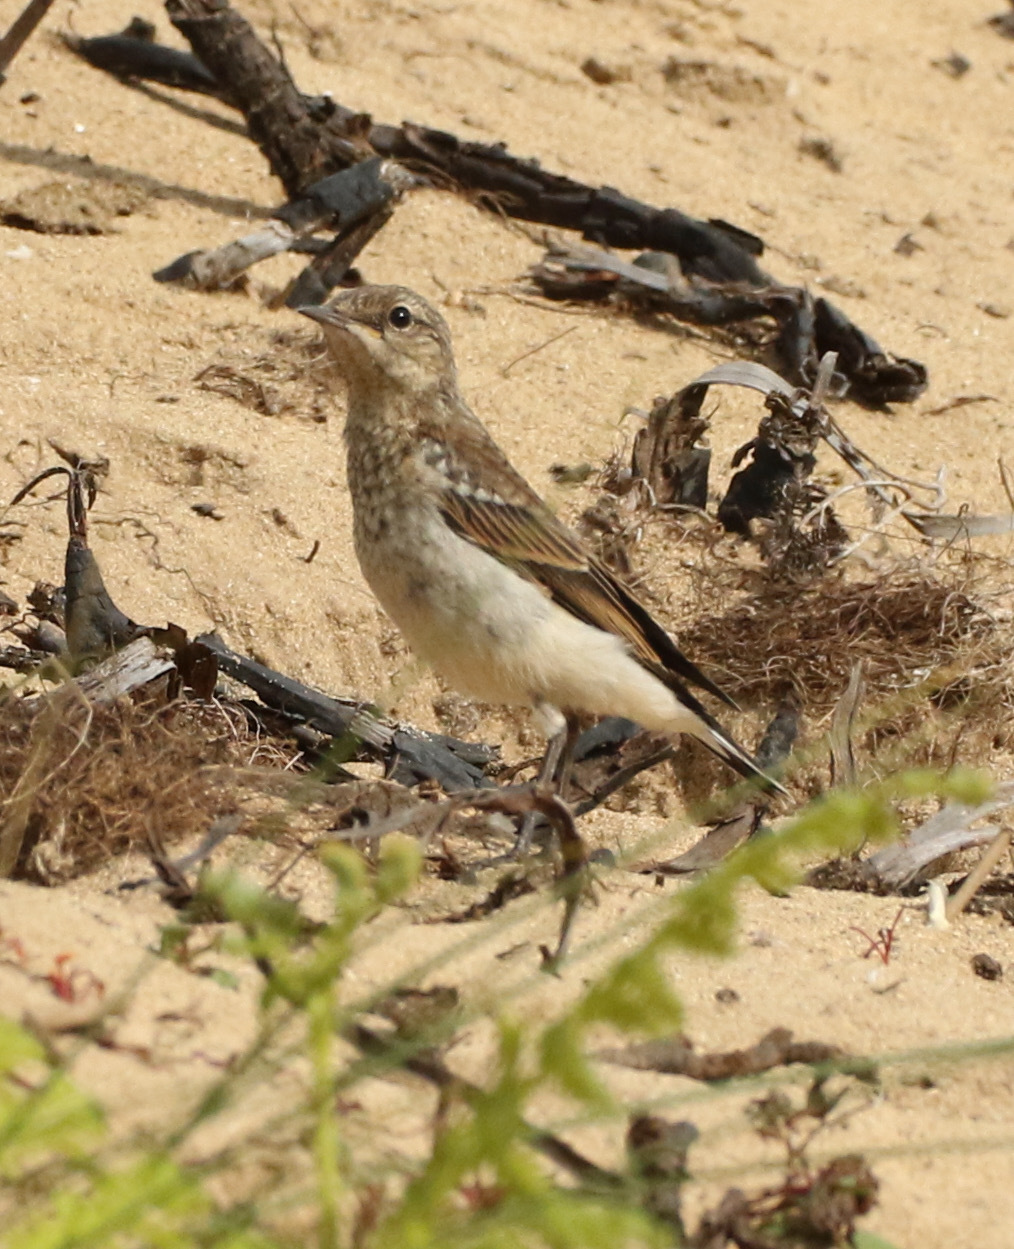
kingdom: Animalia
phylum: Chordata
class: Aves
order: Passeriformes
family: Muscicapidae
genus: Oenanthe
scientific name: Oenanthe oenanthe
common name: Northern wheatear
